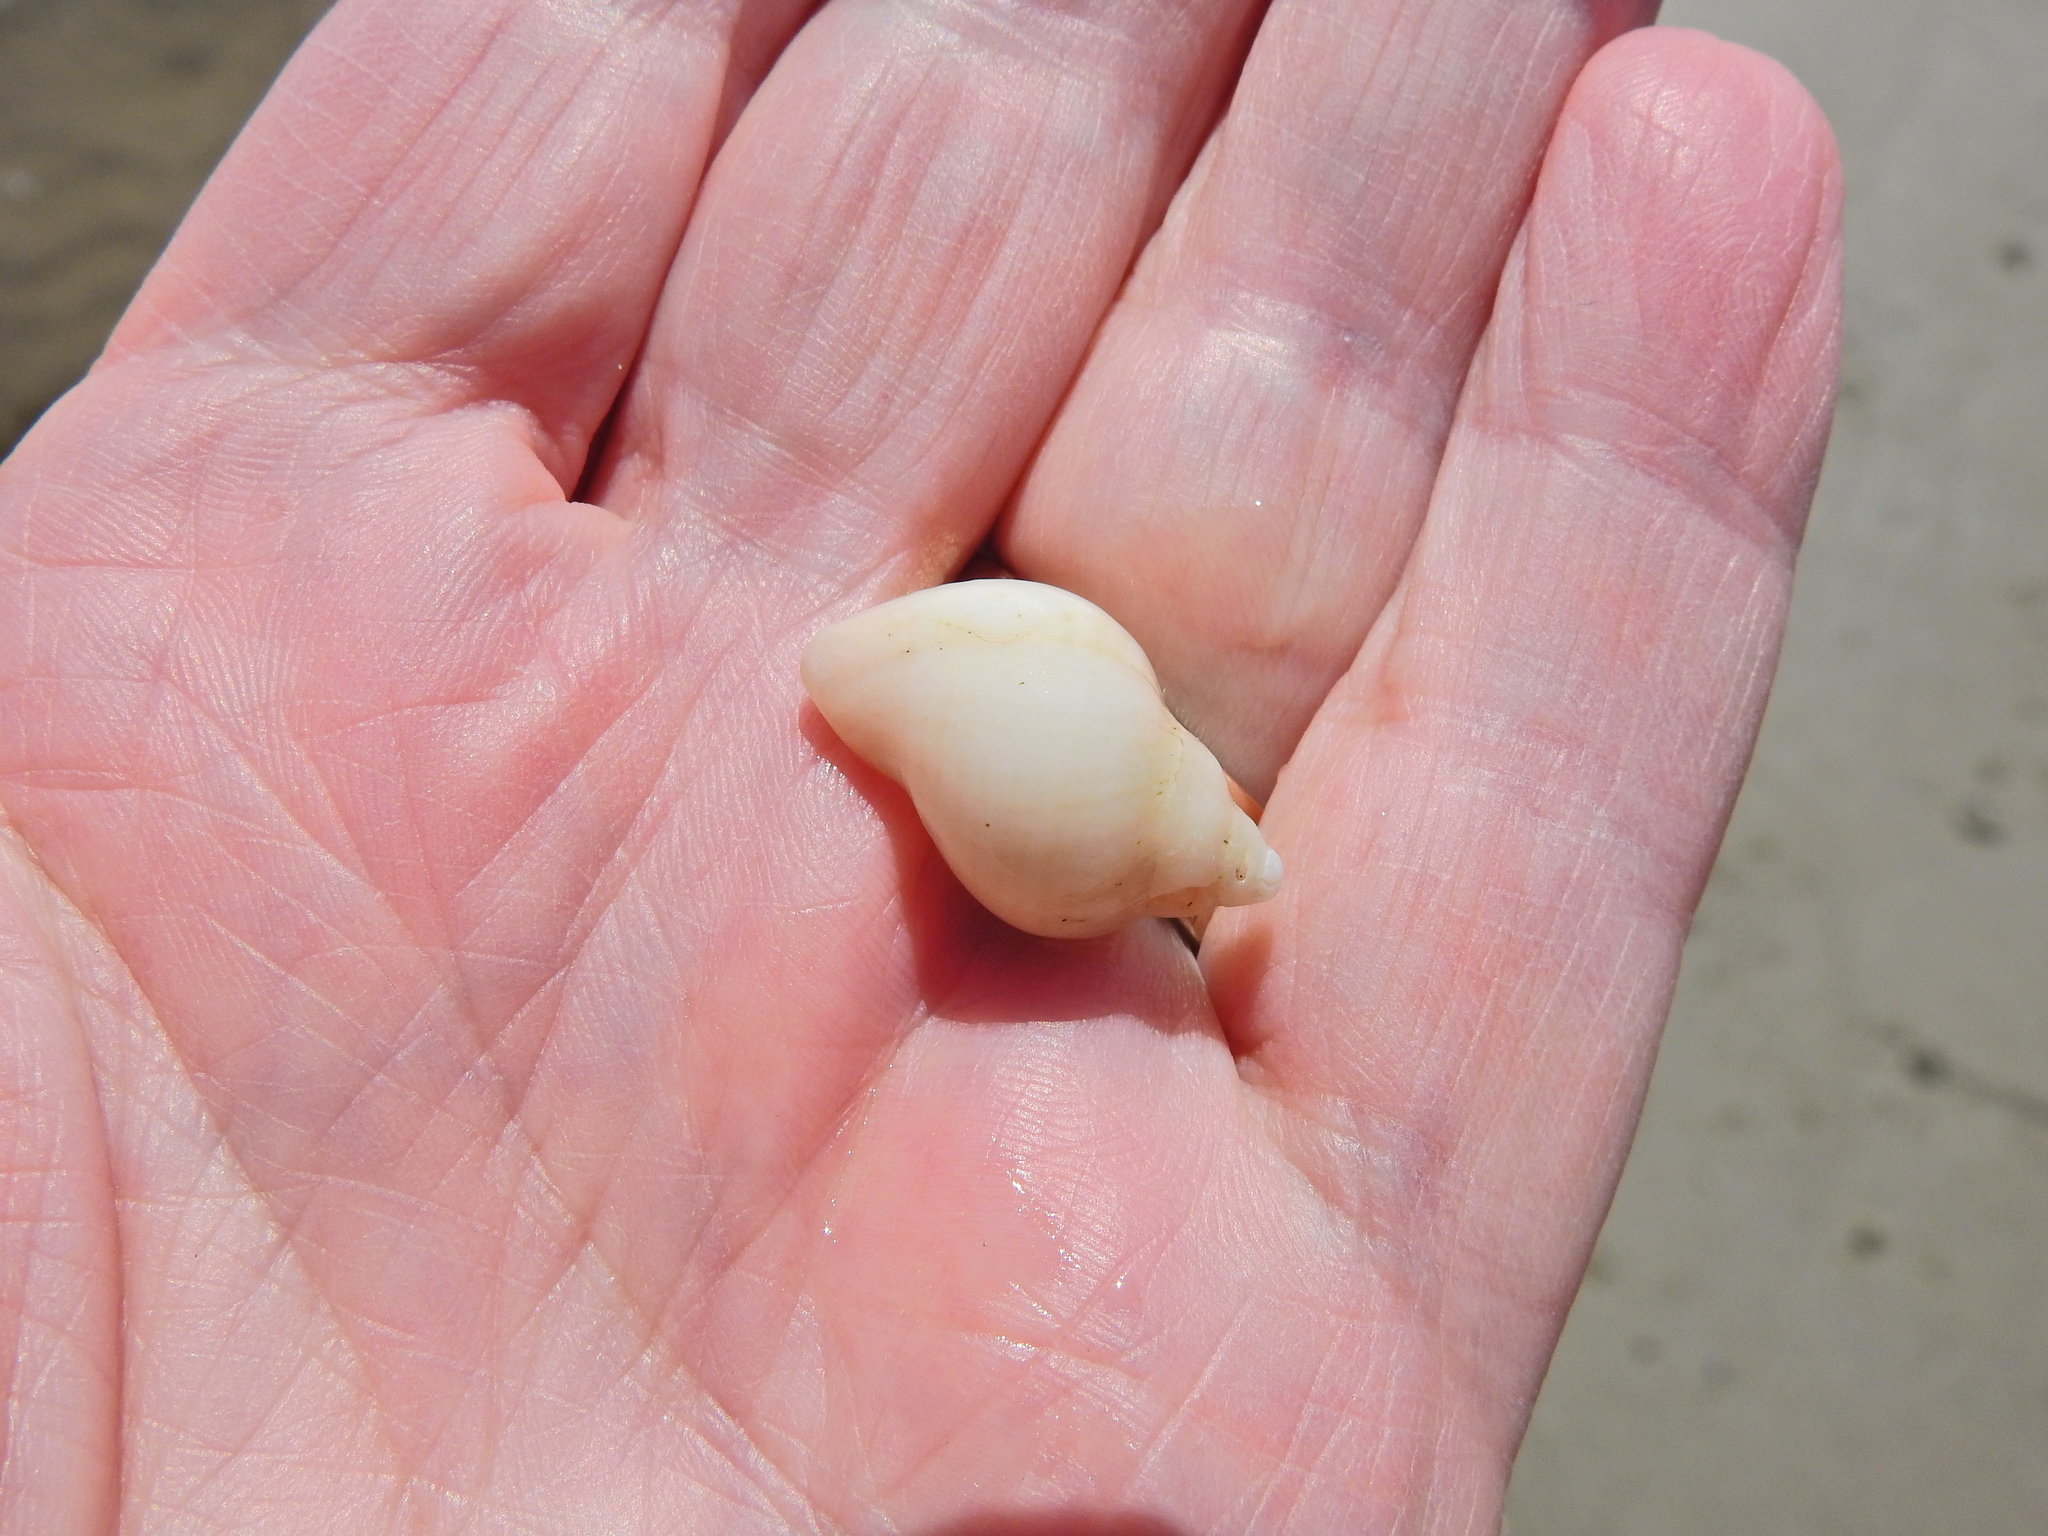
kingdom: Animalia
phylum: Mollusca
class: Gastropoda
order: Neogastropoda
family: Muricidae
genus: Nucella
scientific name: Nucella lapillus
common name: Dog whelk
